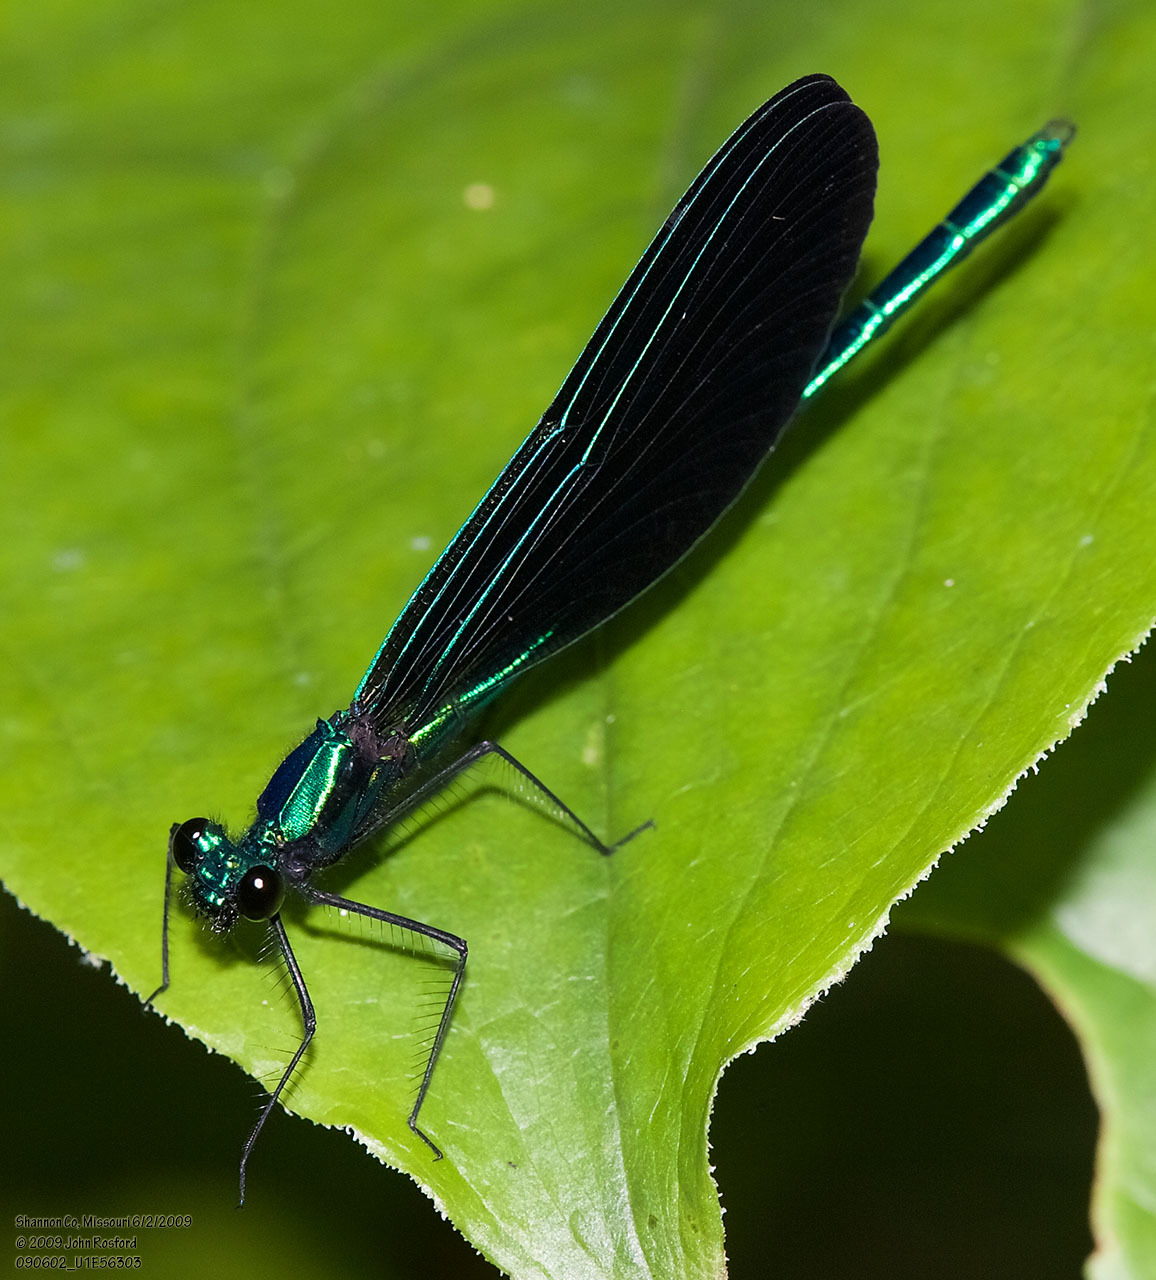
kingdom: Animalia
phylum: Arthropoda
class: Insecta
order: Odonata
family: Calopterygidae
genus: Calopteryx
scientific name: Calopteryx maculata
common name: Ebony jewelwing
